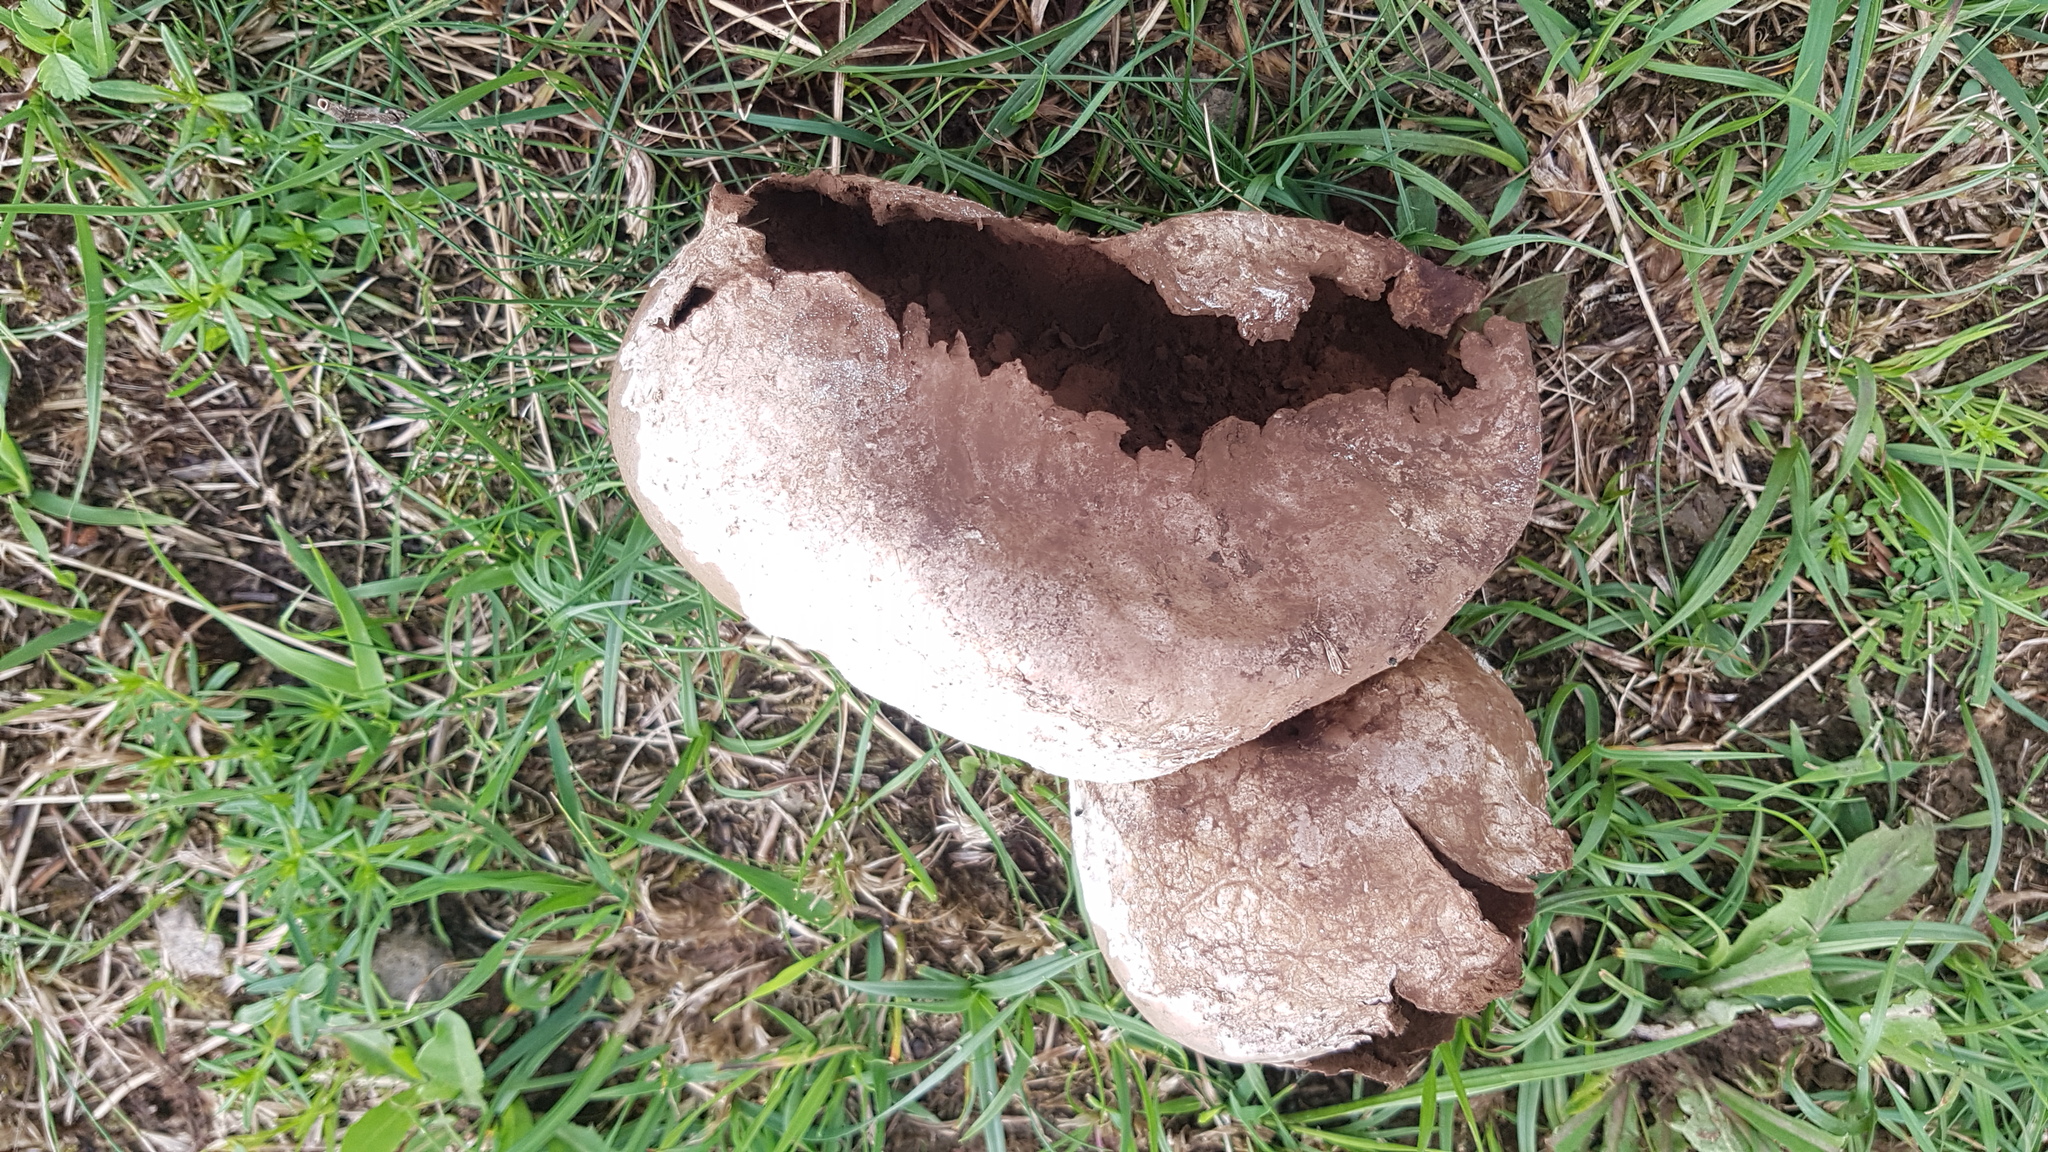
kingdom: Fungi
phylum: Basidiomycota
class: Agaricomycetes
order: Agaricales
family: Lycoperdaceae
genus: Bovistella
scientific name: Bovistella utriformis
